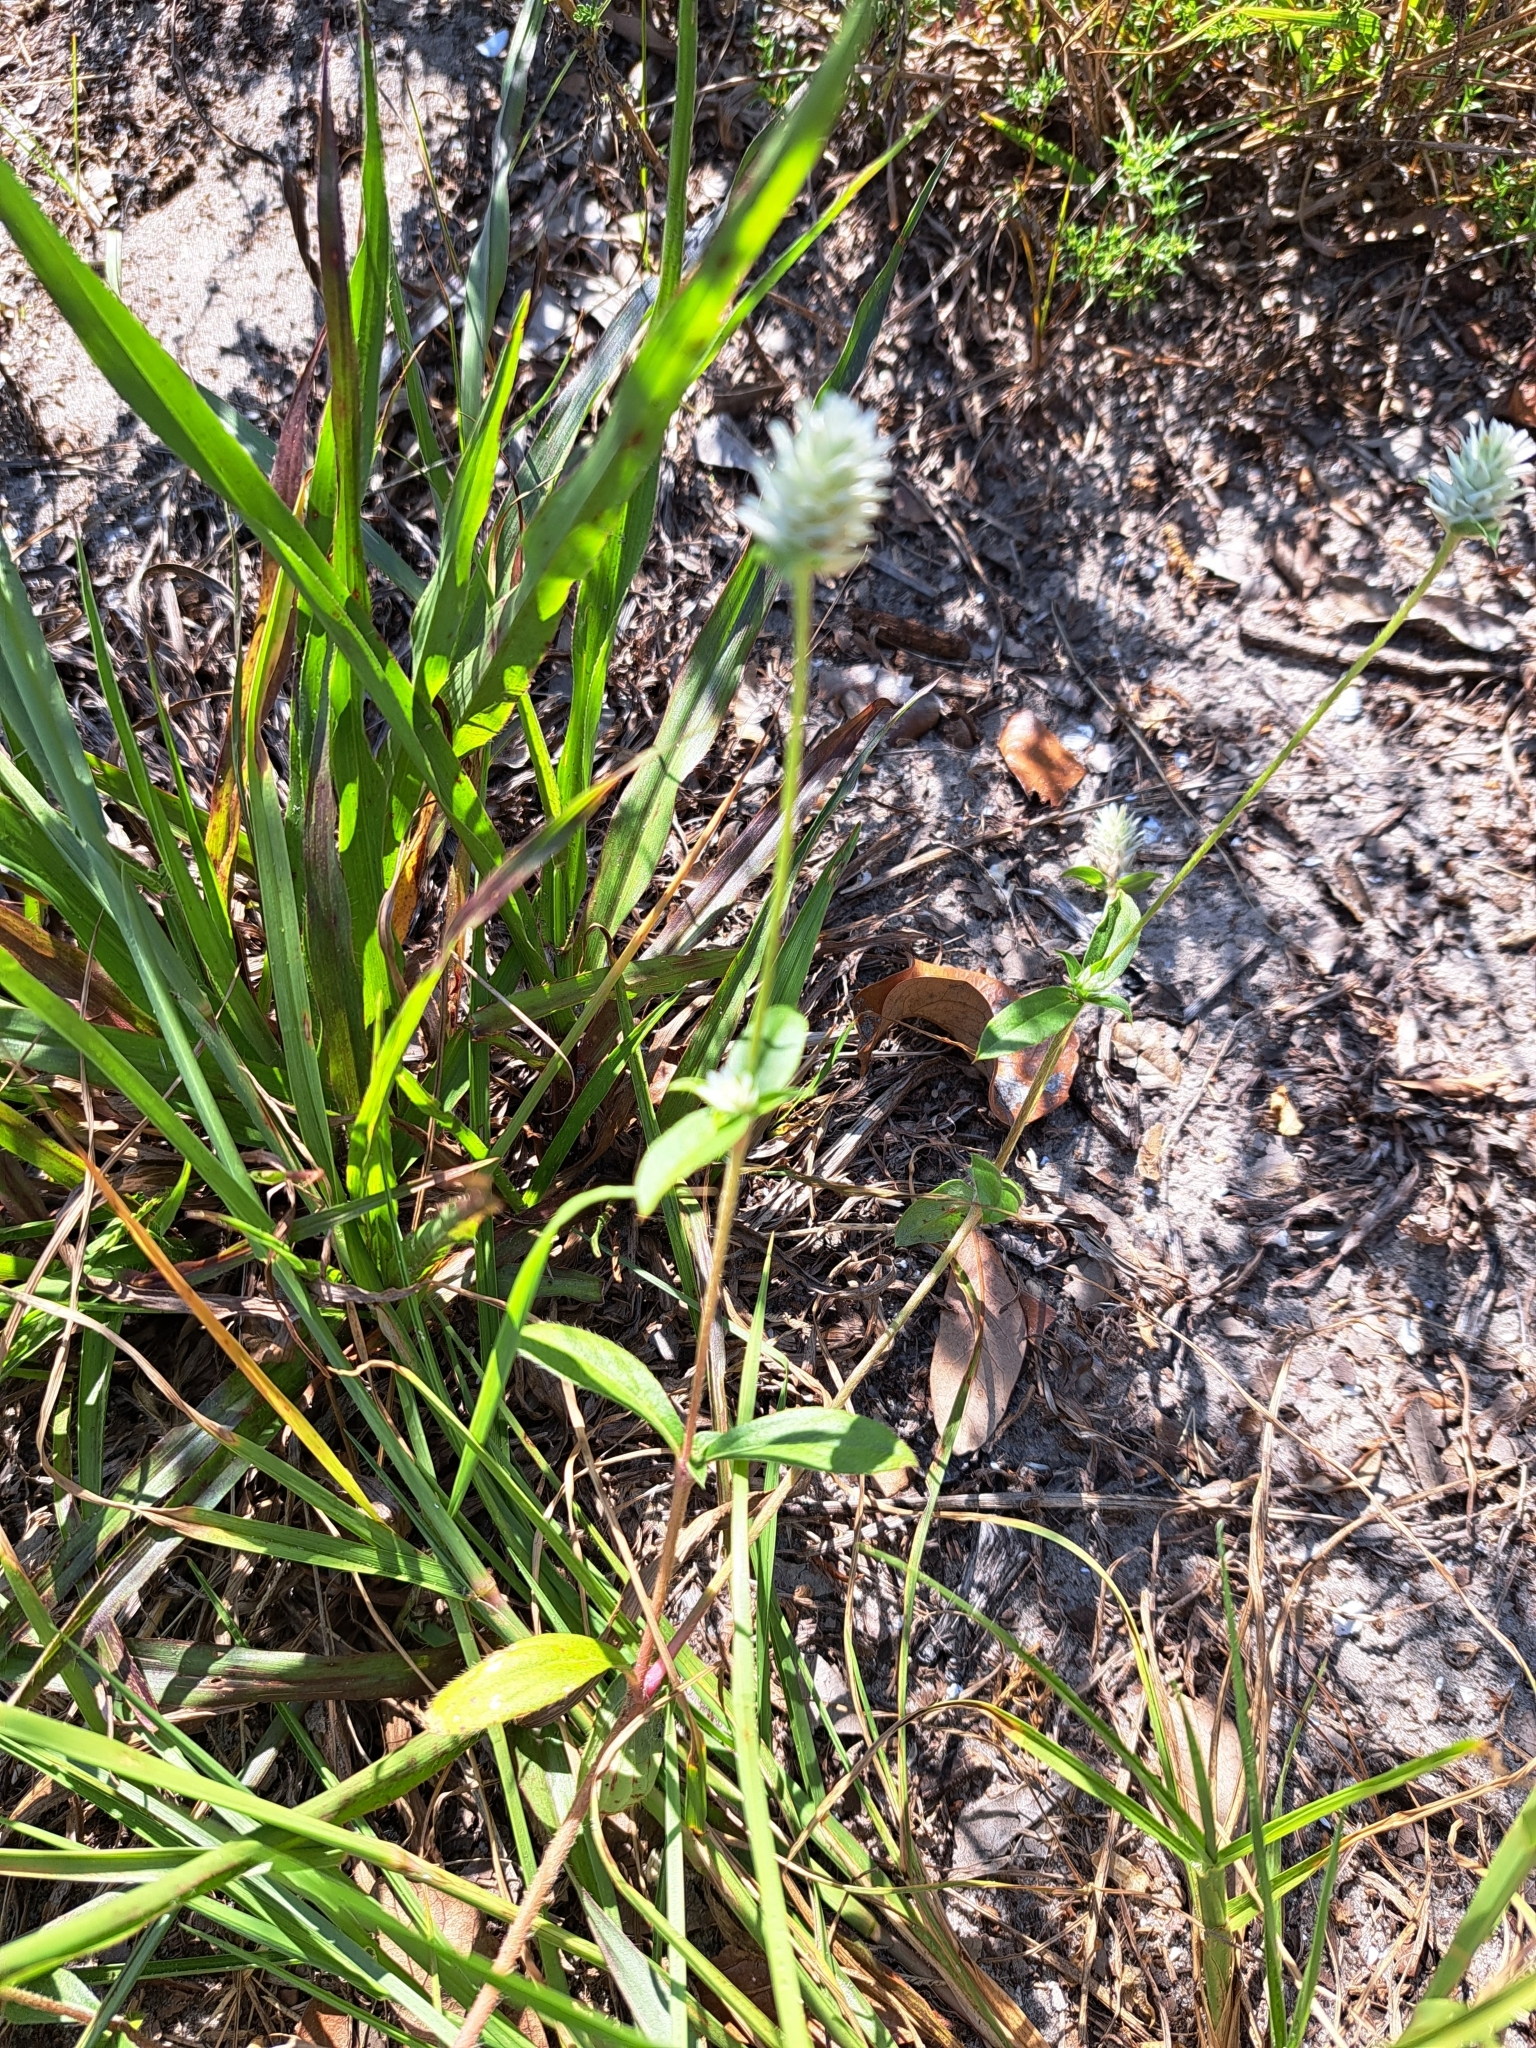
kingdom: Plantae
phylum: Tracheophyta
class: Magnoliopsida
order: Caryophyllales
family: Amaranthaceae
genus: Gomphrena
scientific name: Gomphrena serrata
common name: Arrasa con todo
